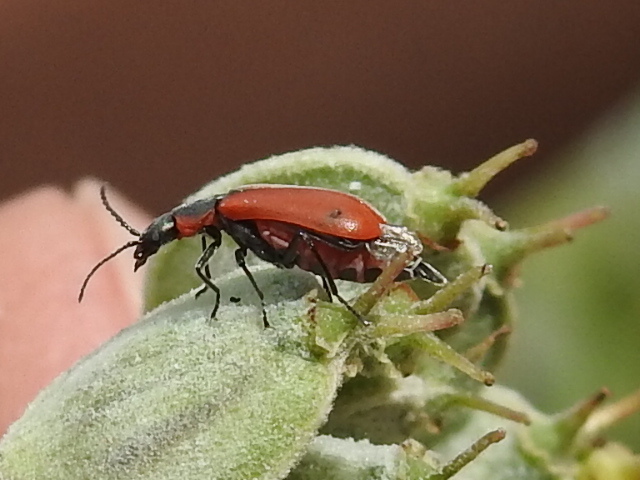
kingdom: Animalia
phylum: Arthropoda
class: Insecta
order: Coleoptera
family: Melyridae
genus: Anthocomus
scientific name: Anthocomus rufus
